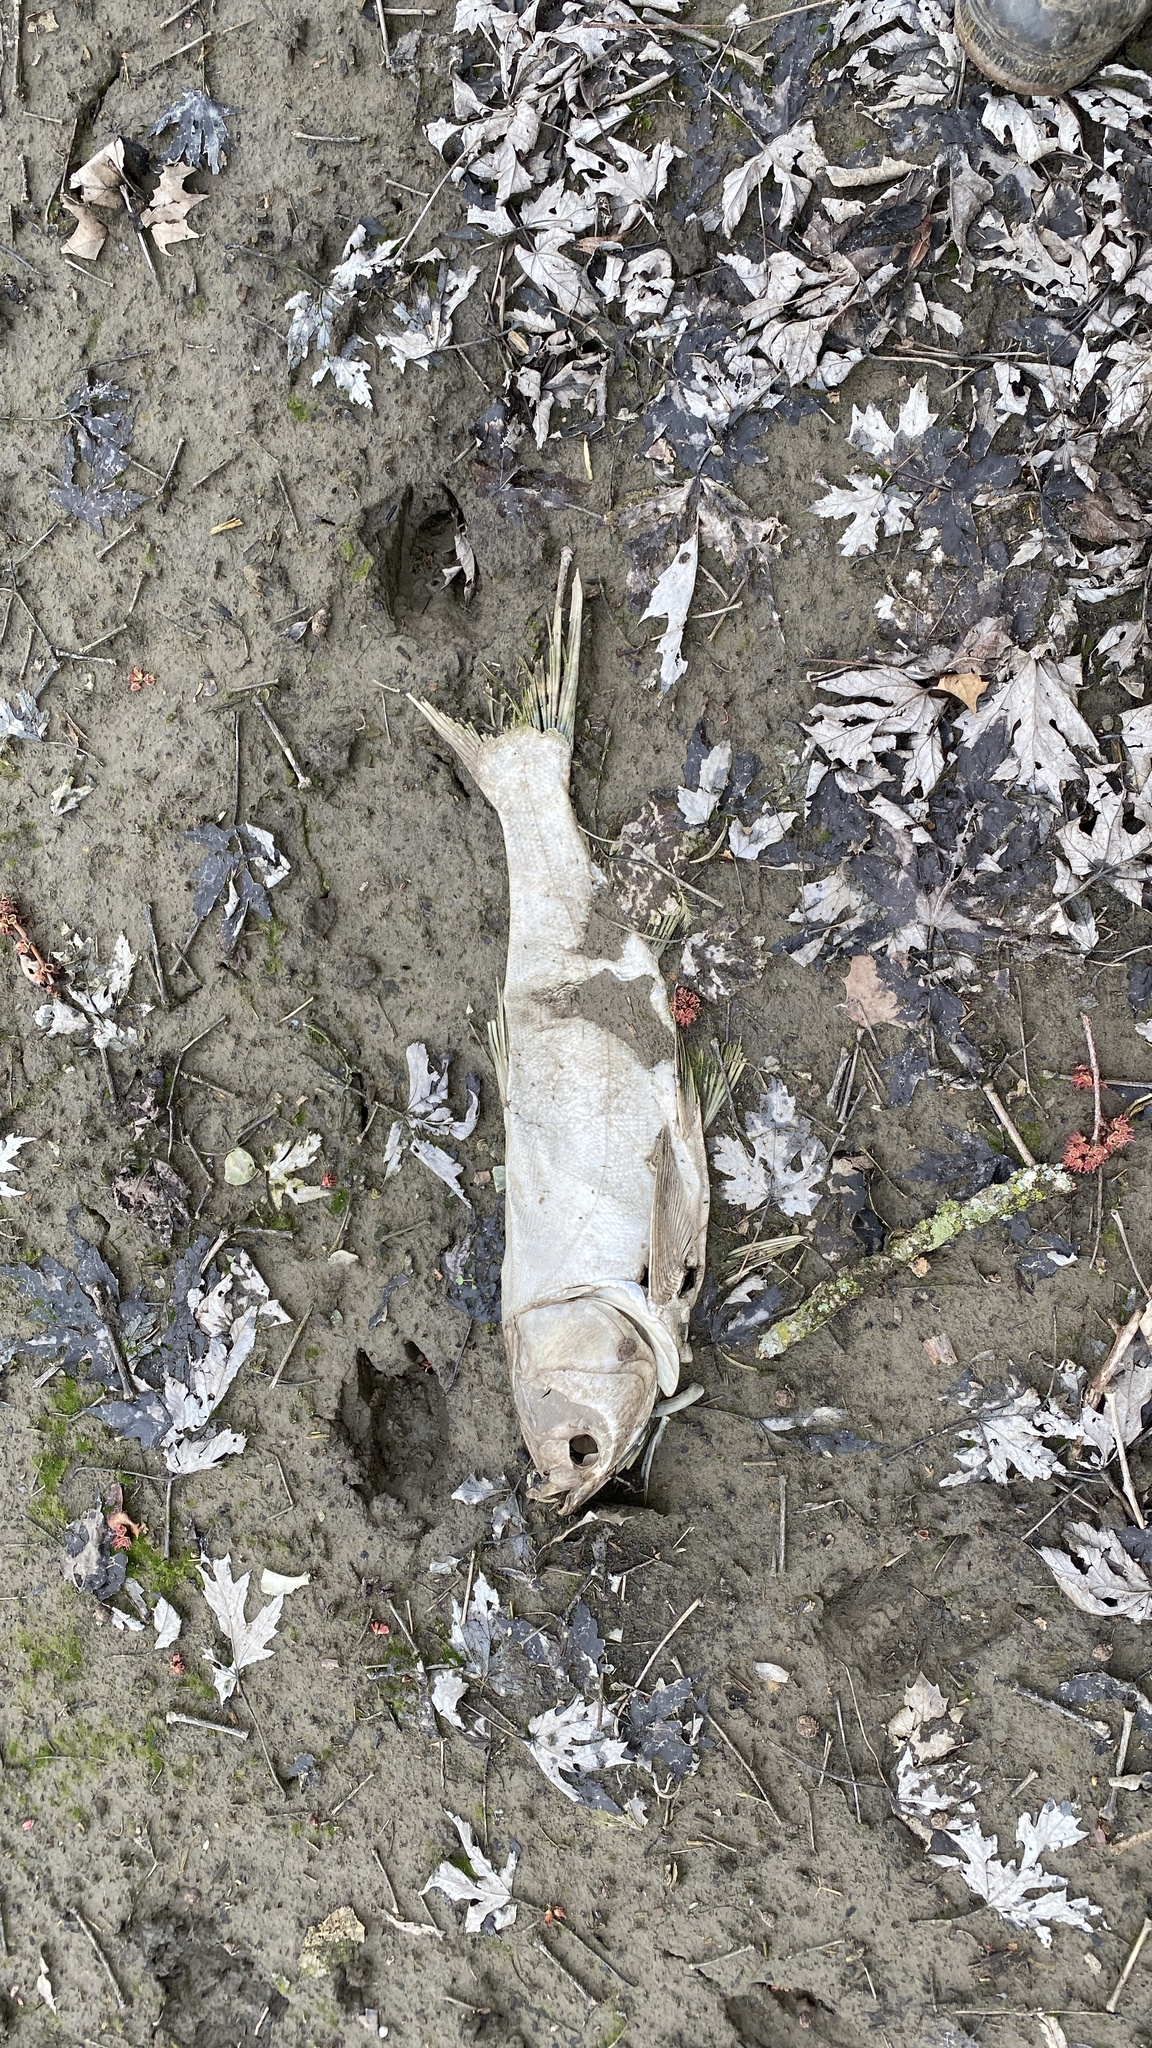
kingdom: Animalia
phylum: Chordata
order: Cypriniformes
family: Cyprinidae
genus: Hypophthalmichthys
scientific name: Hypophthalmichthys molitrix
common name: Silver carp
